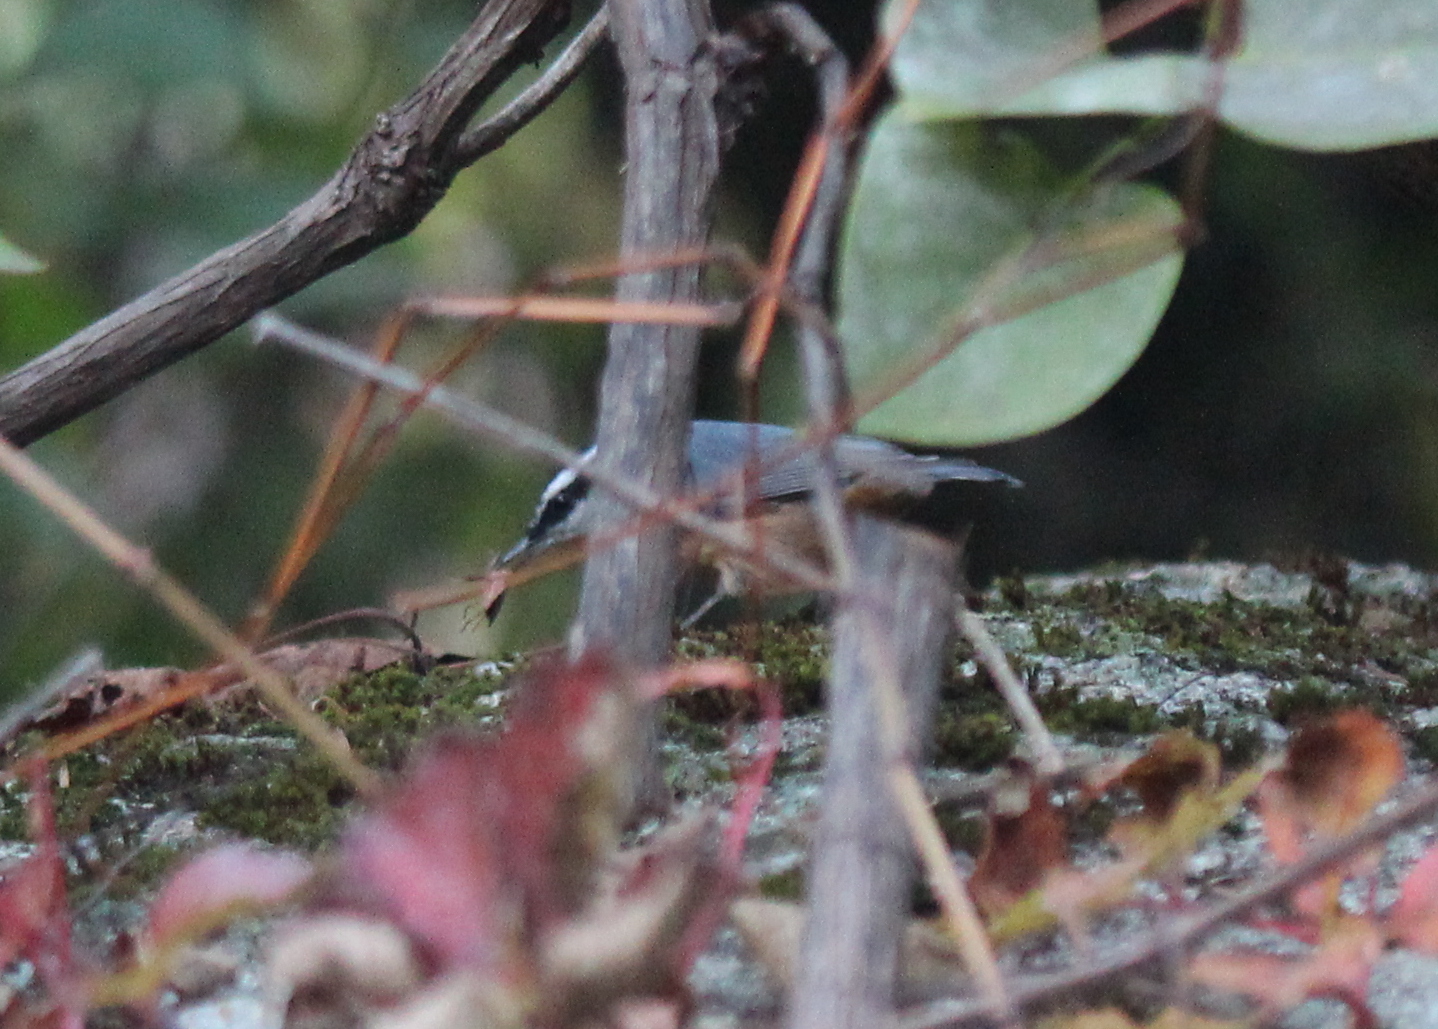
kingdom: Animalia
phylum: Chordata
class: Aves
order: Passeriformes
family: Sittidae
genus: Sitta
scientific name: Sitta canadensis
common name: Red-breasted nuthatch
